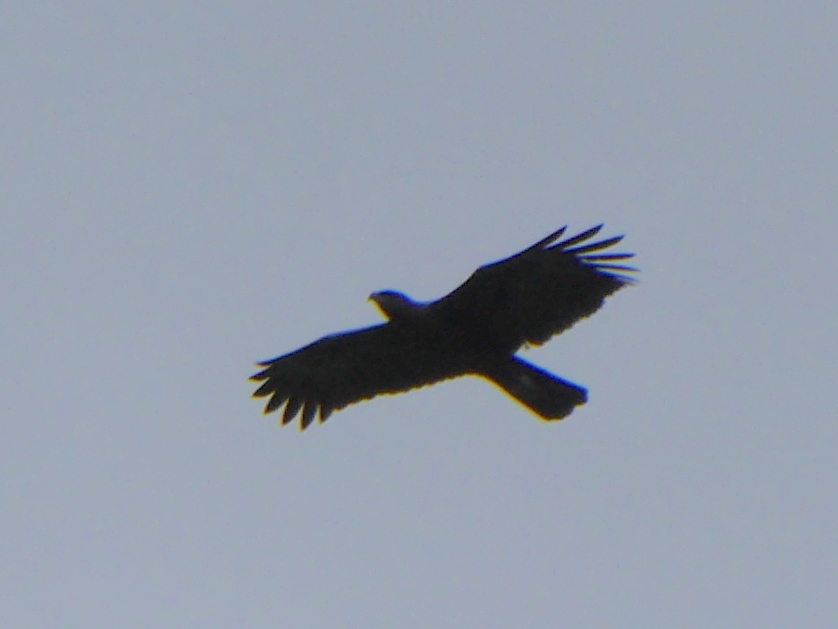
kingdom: Animalia
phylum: Chordata
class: Aves
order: Accipitriformes
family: Accipitridae
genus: Nisaetus
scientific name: Nisaetus cirrhatus
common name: Changeable hawk-eagle
